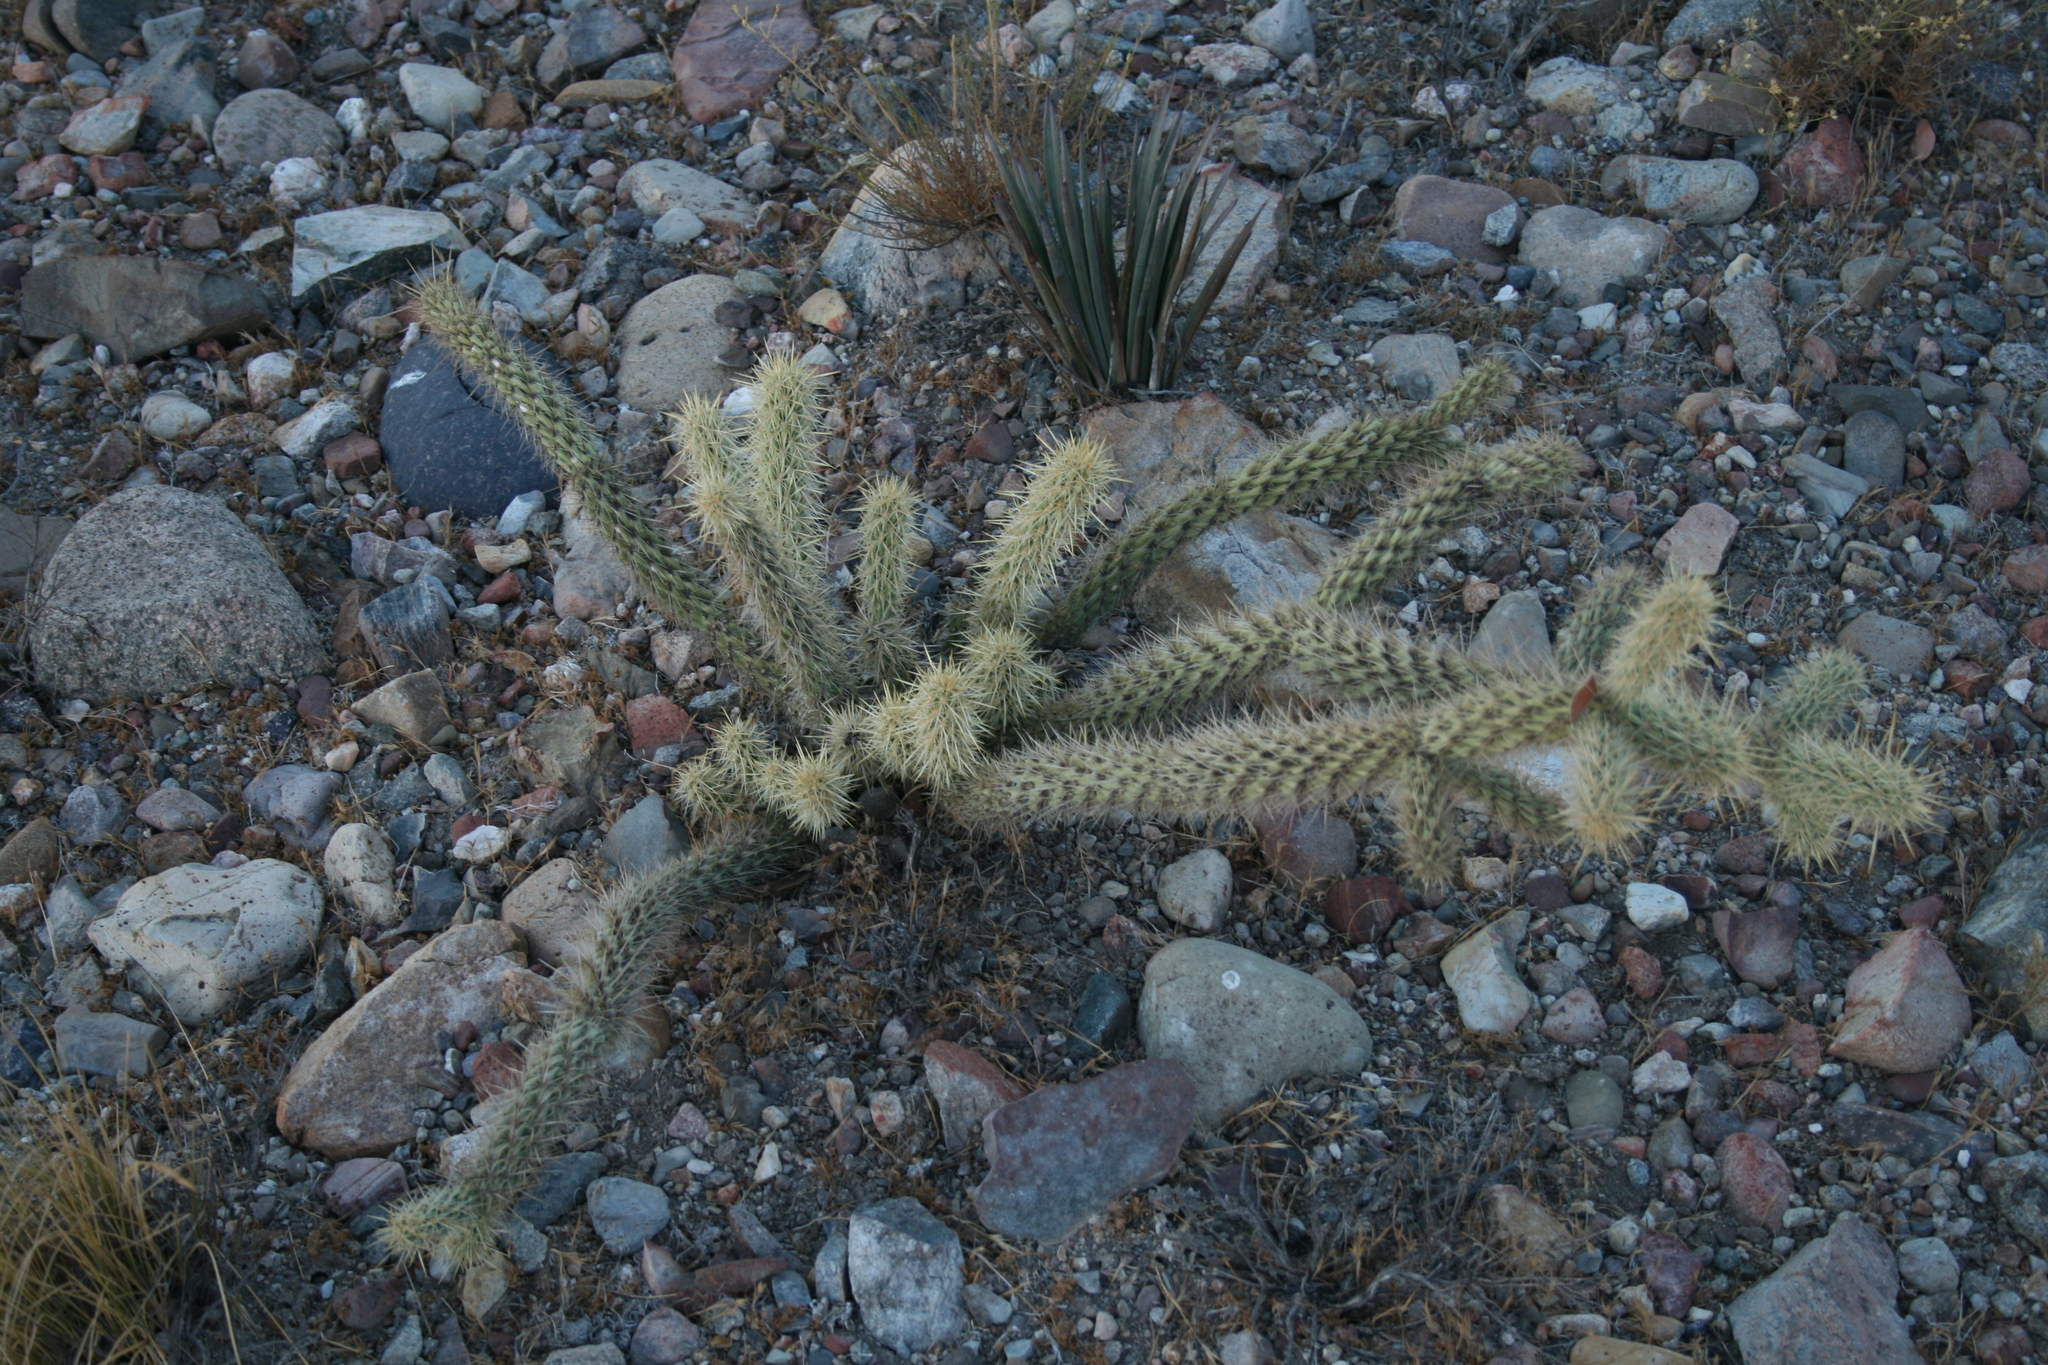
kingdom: Plantae
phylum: Tracheophyta
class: Magnoliopsida
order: Caryophyllales
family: Cactaceae
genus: Cylindropuntia
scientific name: Cylindropuntia wolfii
